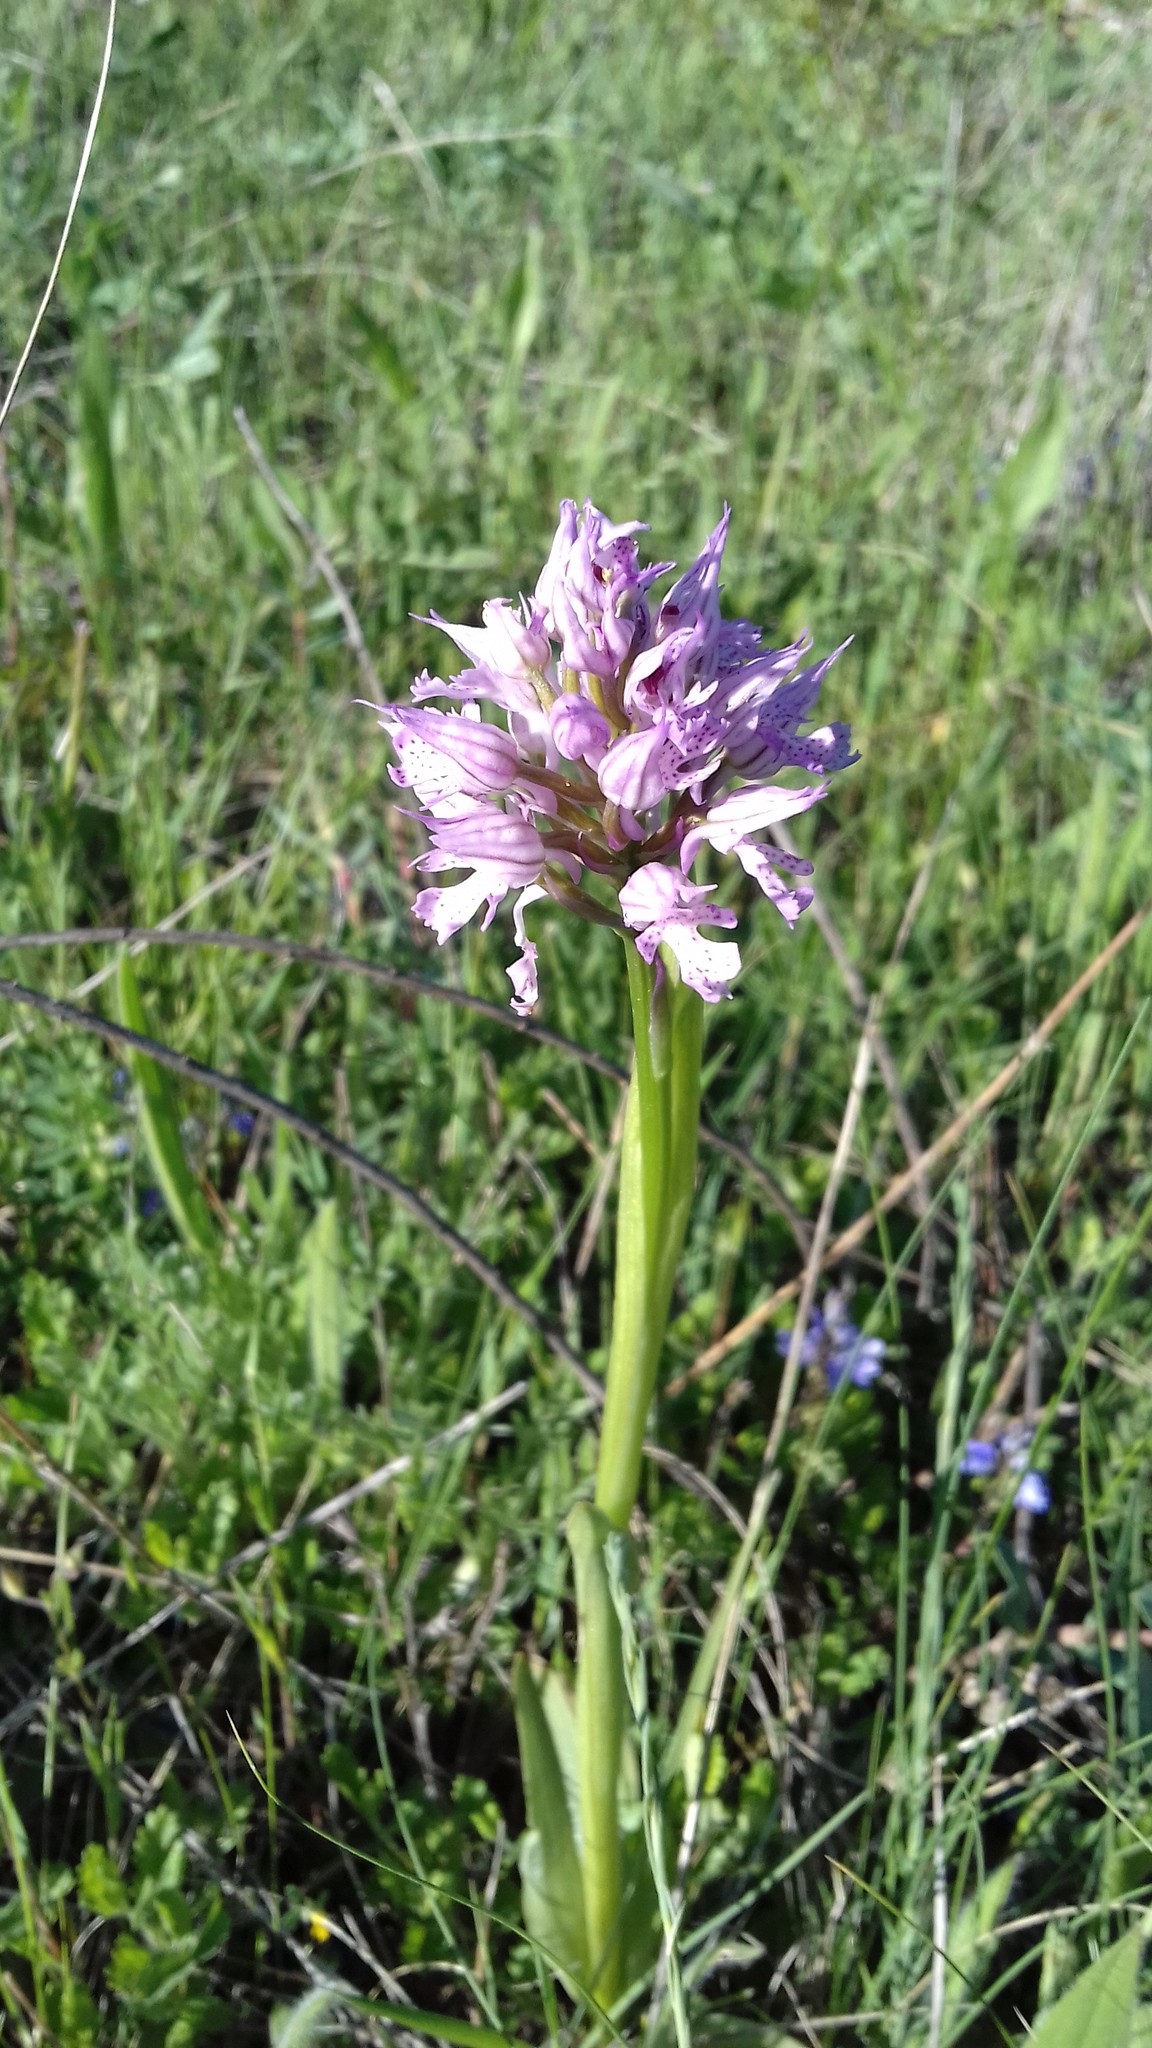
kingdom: Plantae
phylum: Tracheophyta
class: Liliopsida
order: Asparagales
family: Orchidaceae
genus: Neotinea
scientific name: Neotinea tridentata
